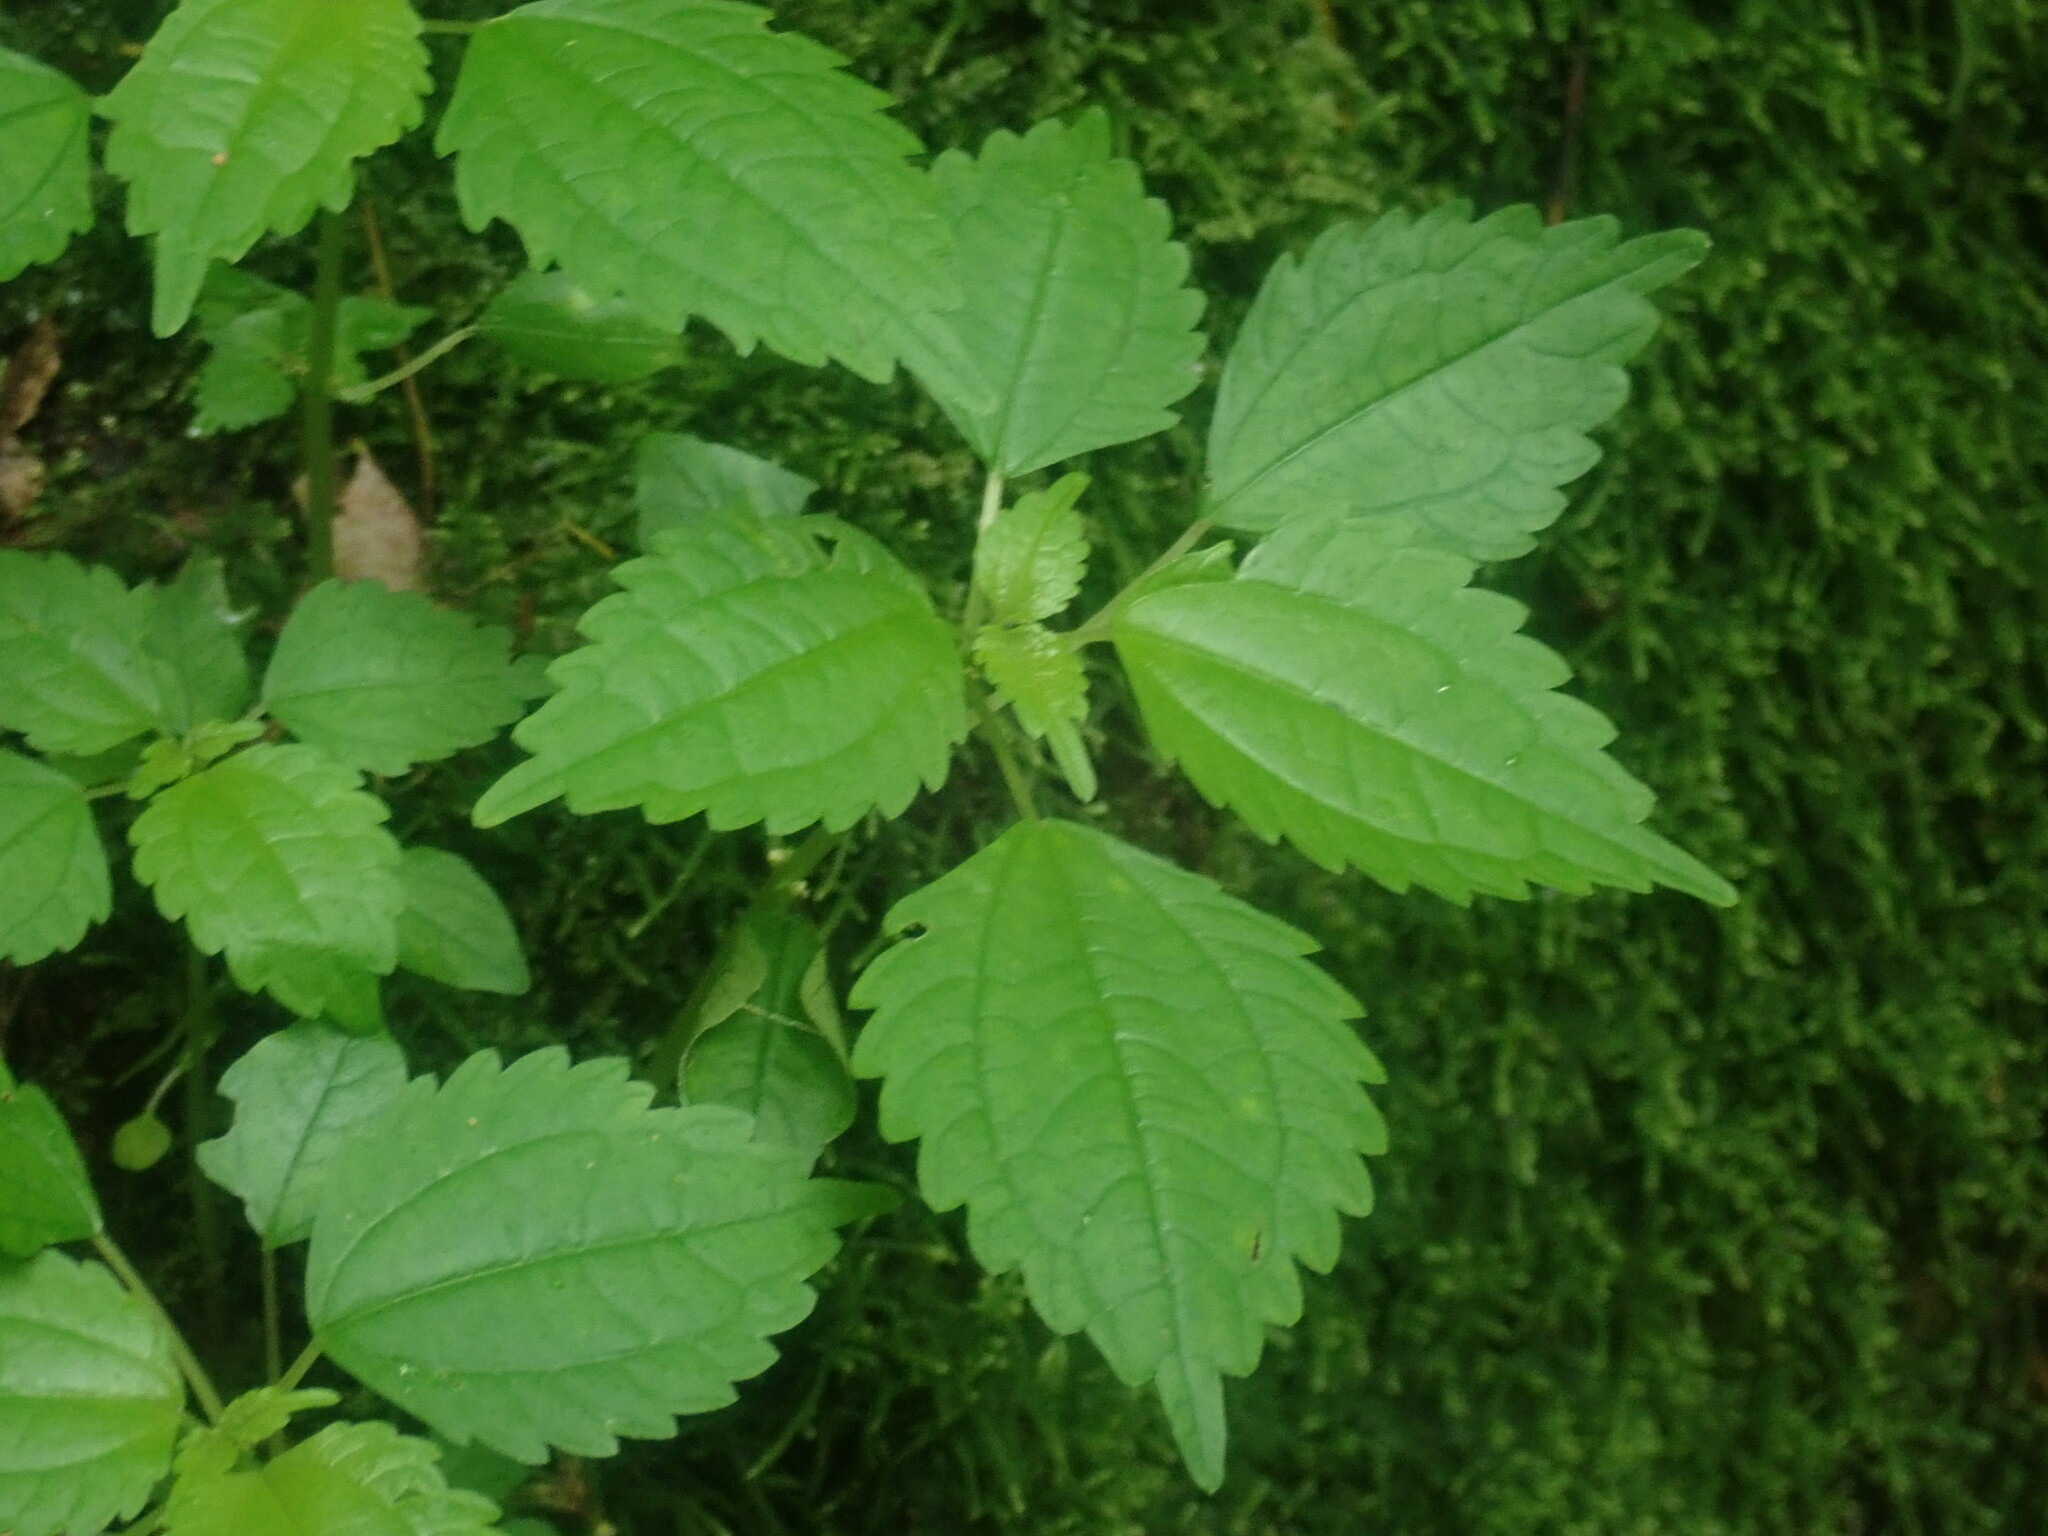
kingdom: Plantae
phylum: Tracheophyta
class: Magnoliopsida
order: Rosales
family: Urticaceae
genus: Pilea
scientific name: Pilea pumila
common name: Clearweed
